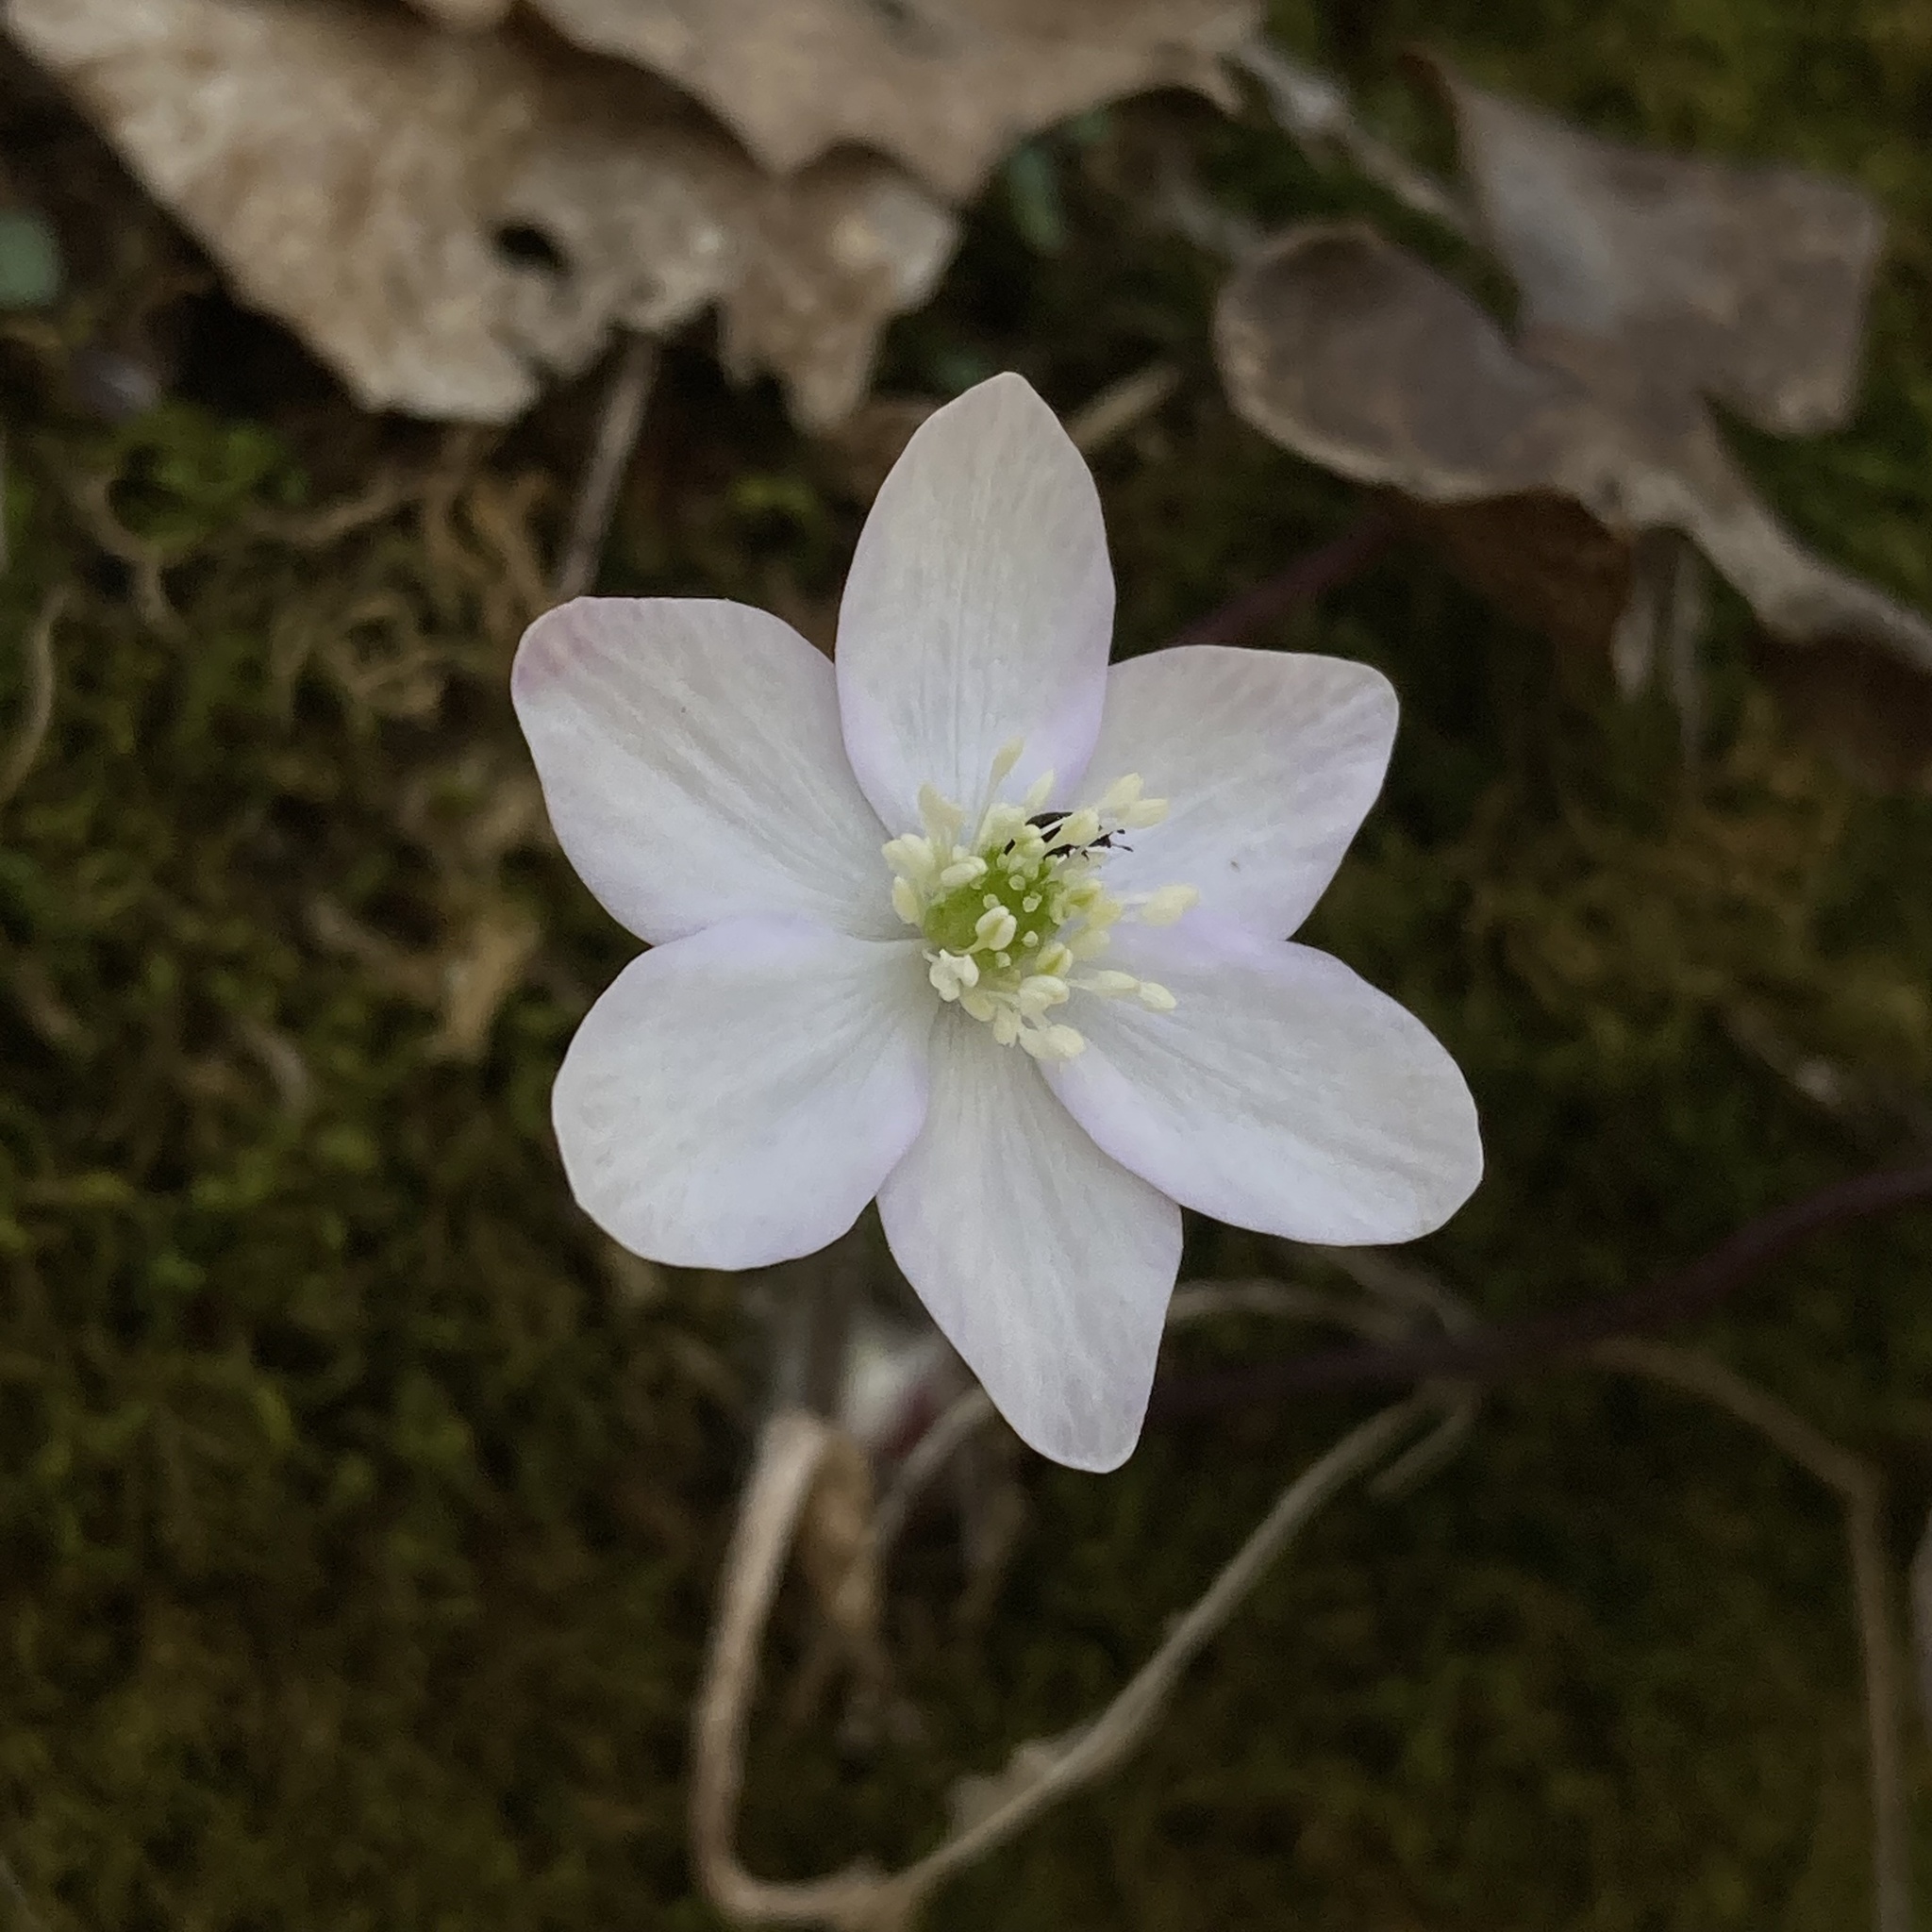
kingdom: Plantae
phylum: Tracheophyta
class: Magnoliopsida
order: Ranunculales
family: Ranunculaceae
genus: Hepatica
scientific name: Hepatica acutiloba
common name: Sharp-lobed hepatica
